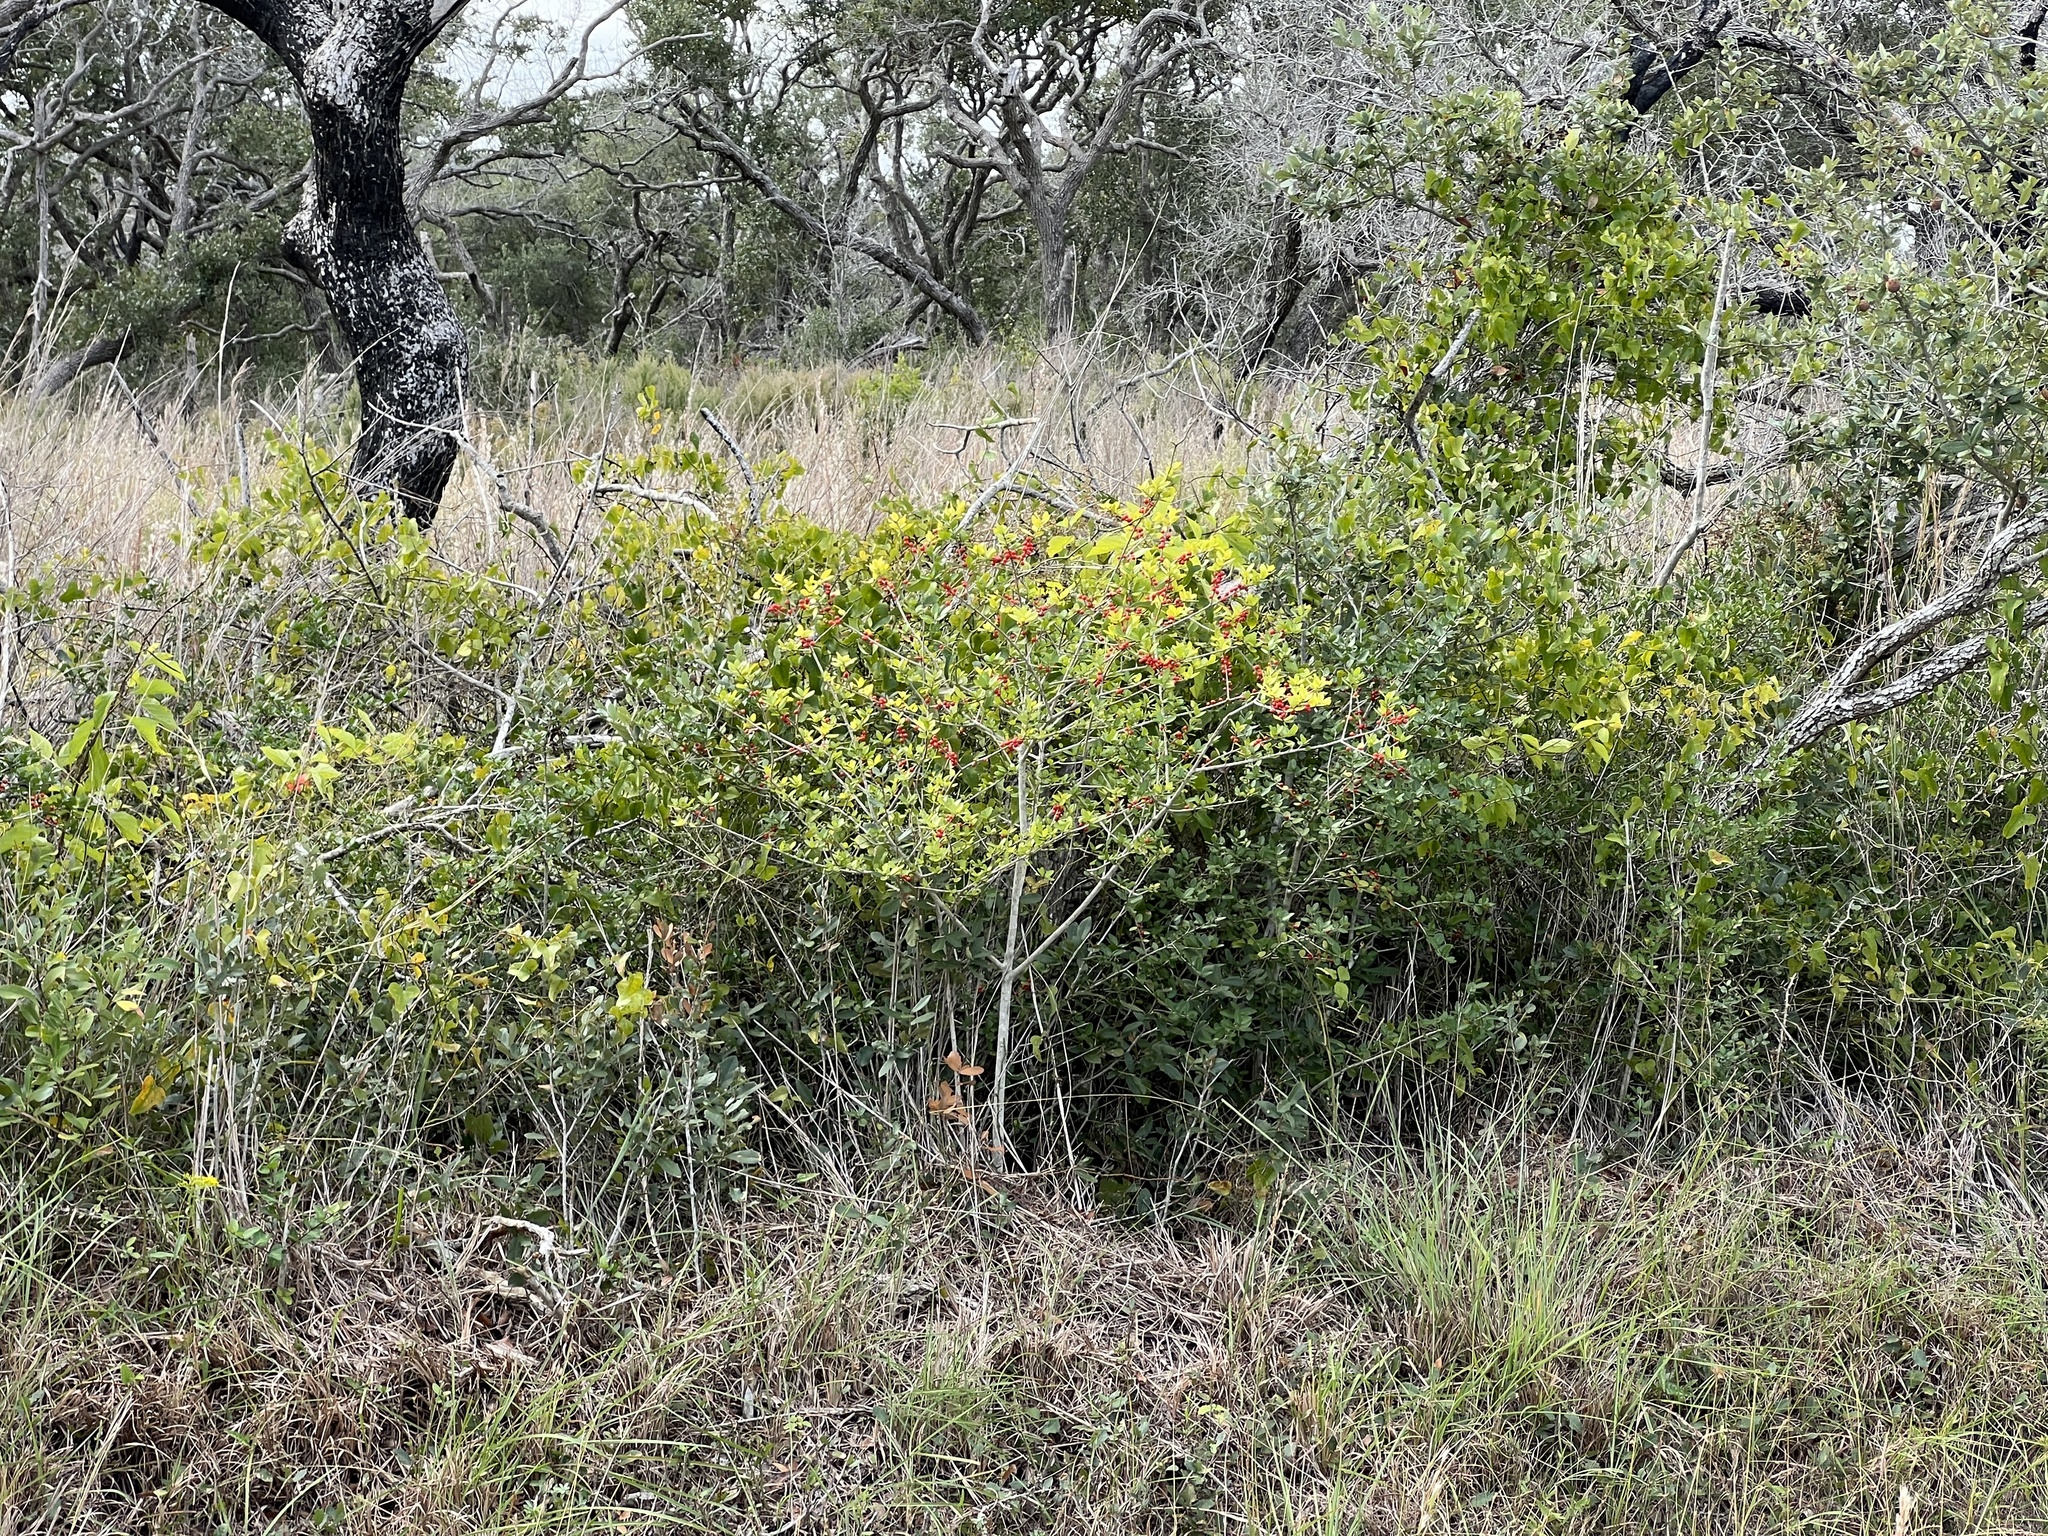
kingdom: Plantae
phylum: Tracheophyta
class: Magnoliopsida
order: Aquifoliales
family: Aquifoliaceae
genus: Ilex
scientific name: Ilex vomitoria
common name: Yaupon holly
